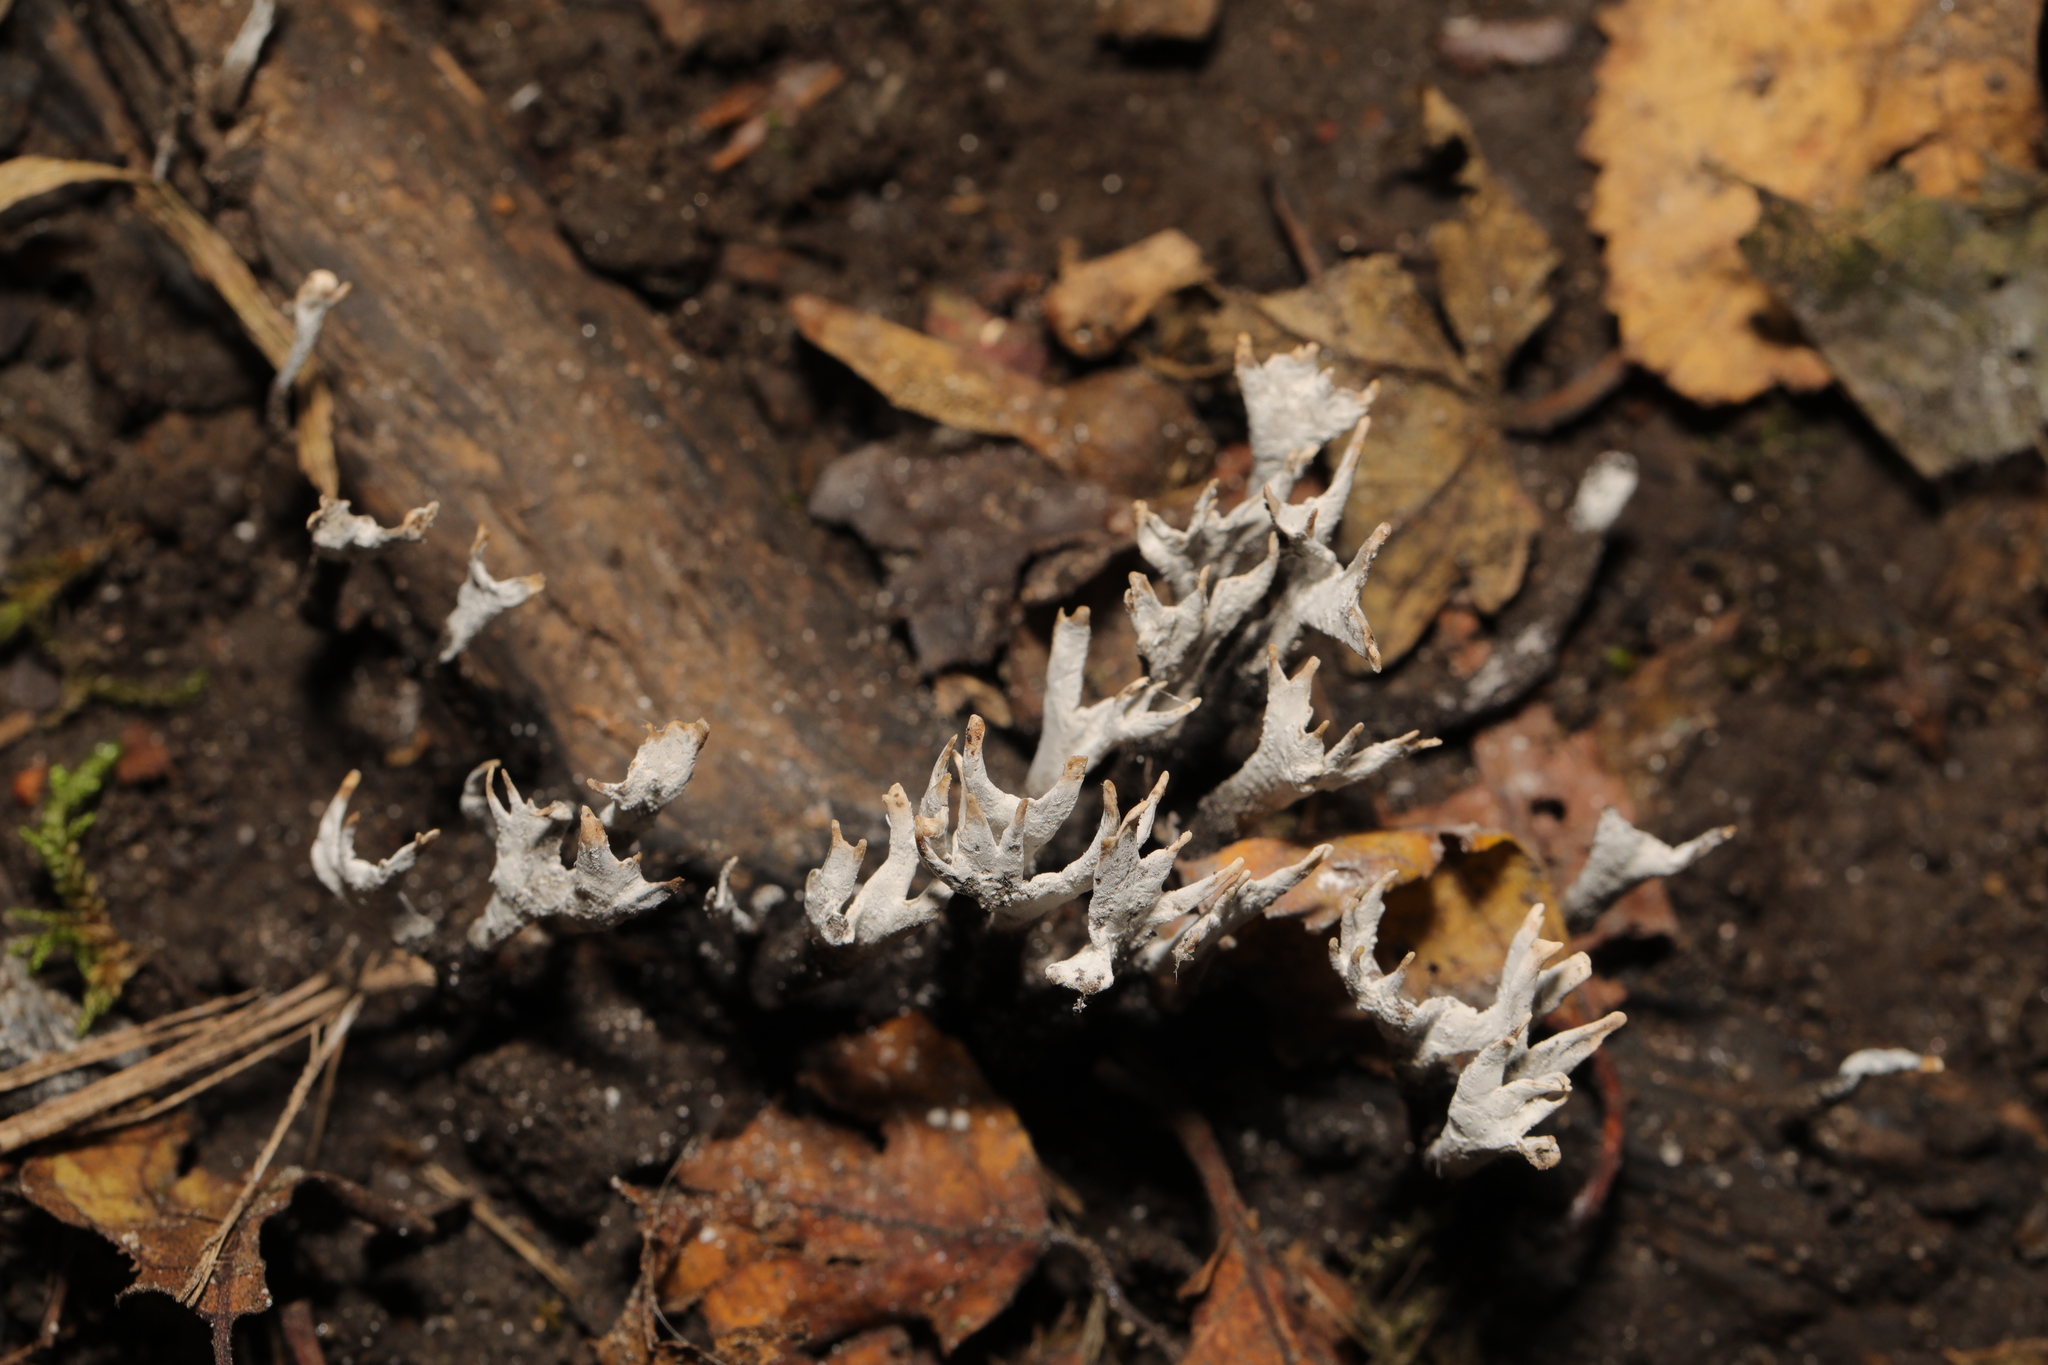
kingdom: Fungi
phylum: Ascomycota
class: Sordariomycetes
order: Xylariales
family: Xylariaceae
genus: Xylaria
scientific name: Xylaria hypoxylon
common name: Candle-snuff fungus
